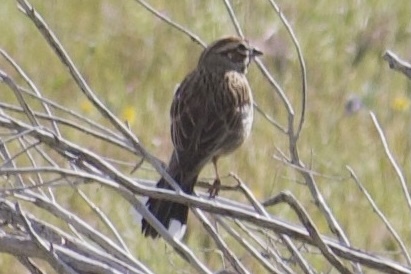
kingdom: Animalia
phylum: Chordata
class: Aves
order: Passeriformes
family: Passerellidae
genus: Chondestes
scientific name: Chondestes grammacus
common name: Lark sparrow
